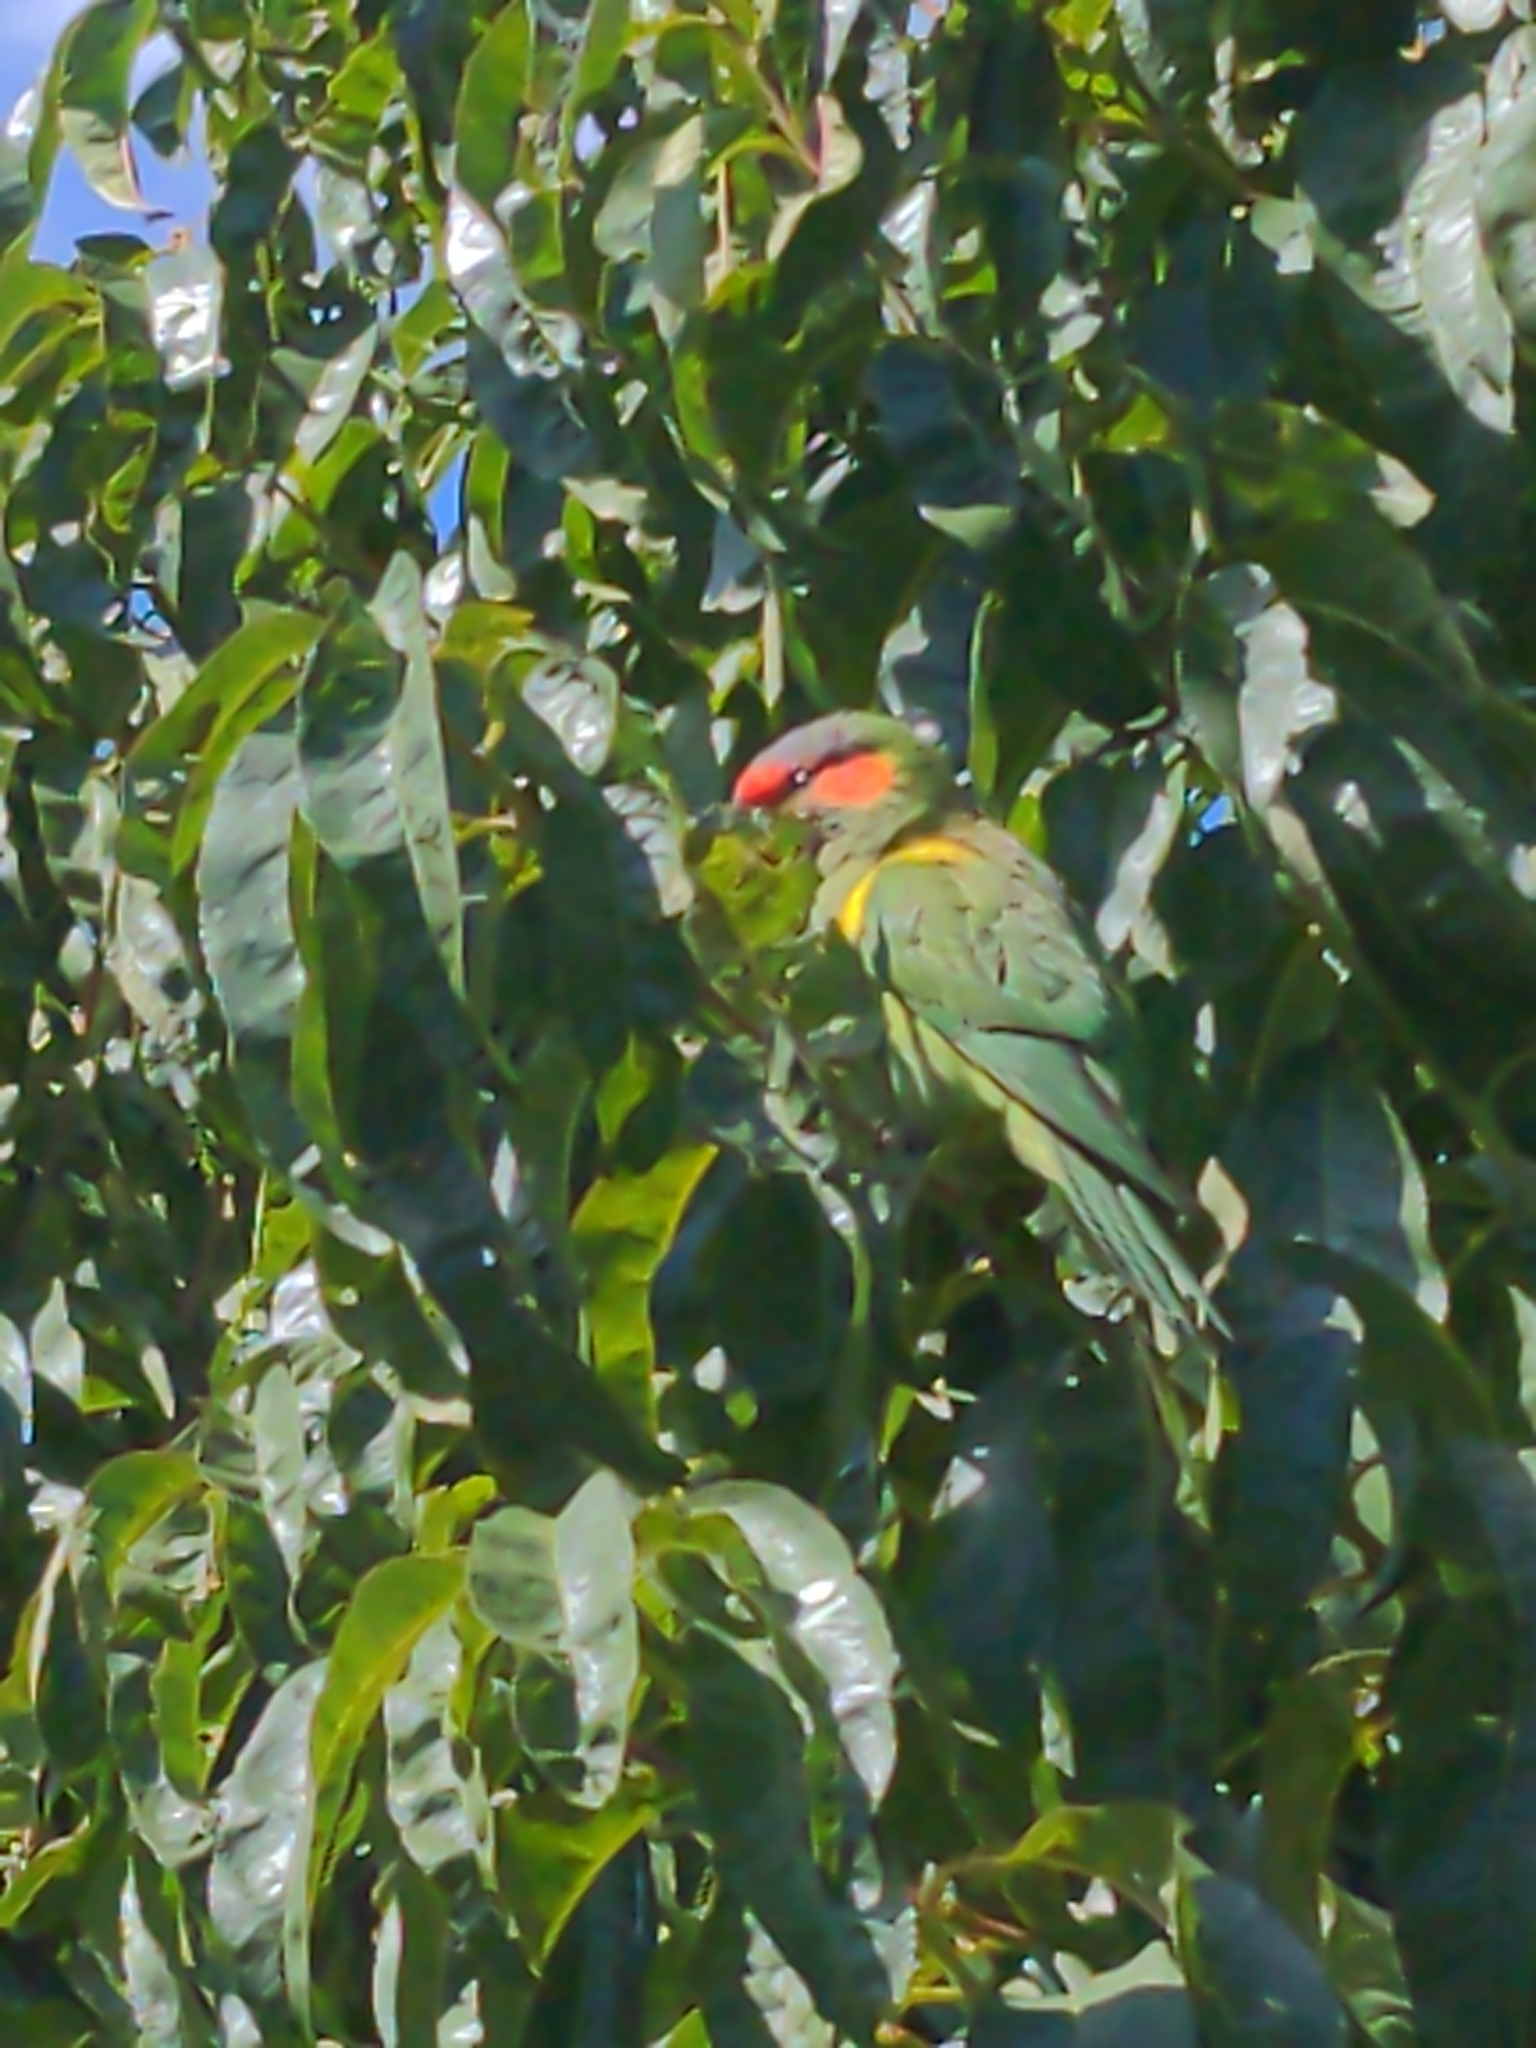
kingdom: Animalia
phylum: Chordata
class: Aves
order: Psittaciformes
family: Psittacidae
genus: Glossopsitta
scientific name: Glossopsitta concinna
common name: Musk lorikeet
